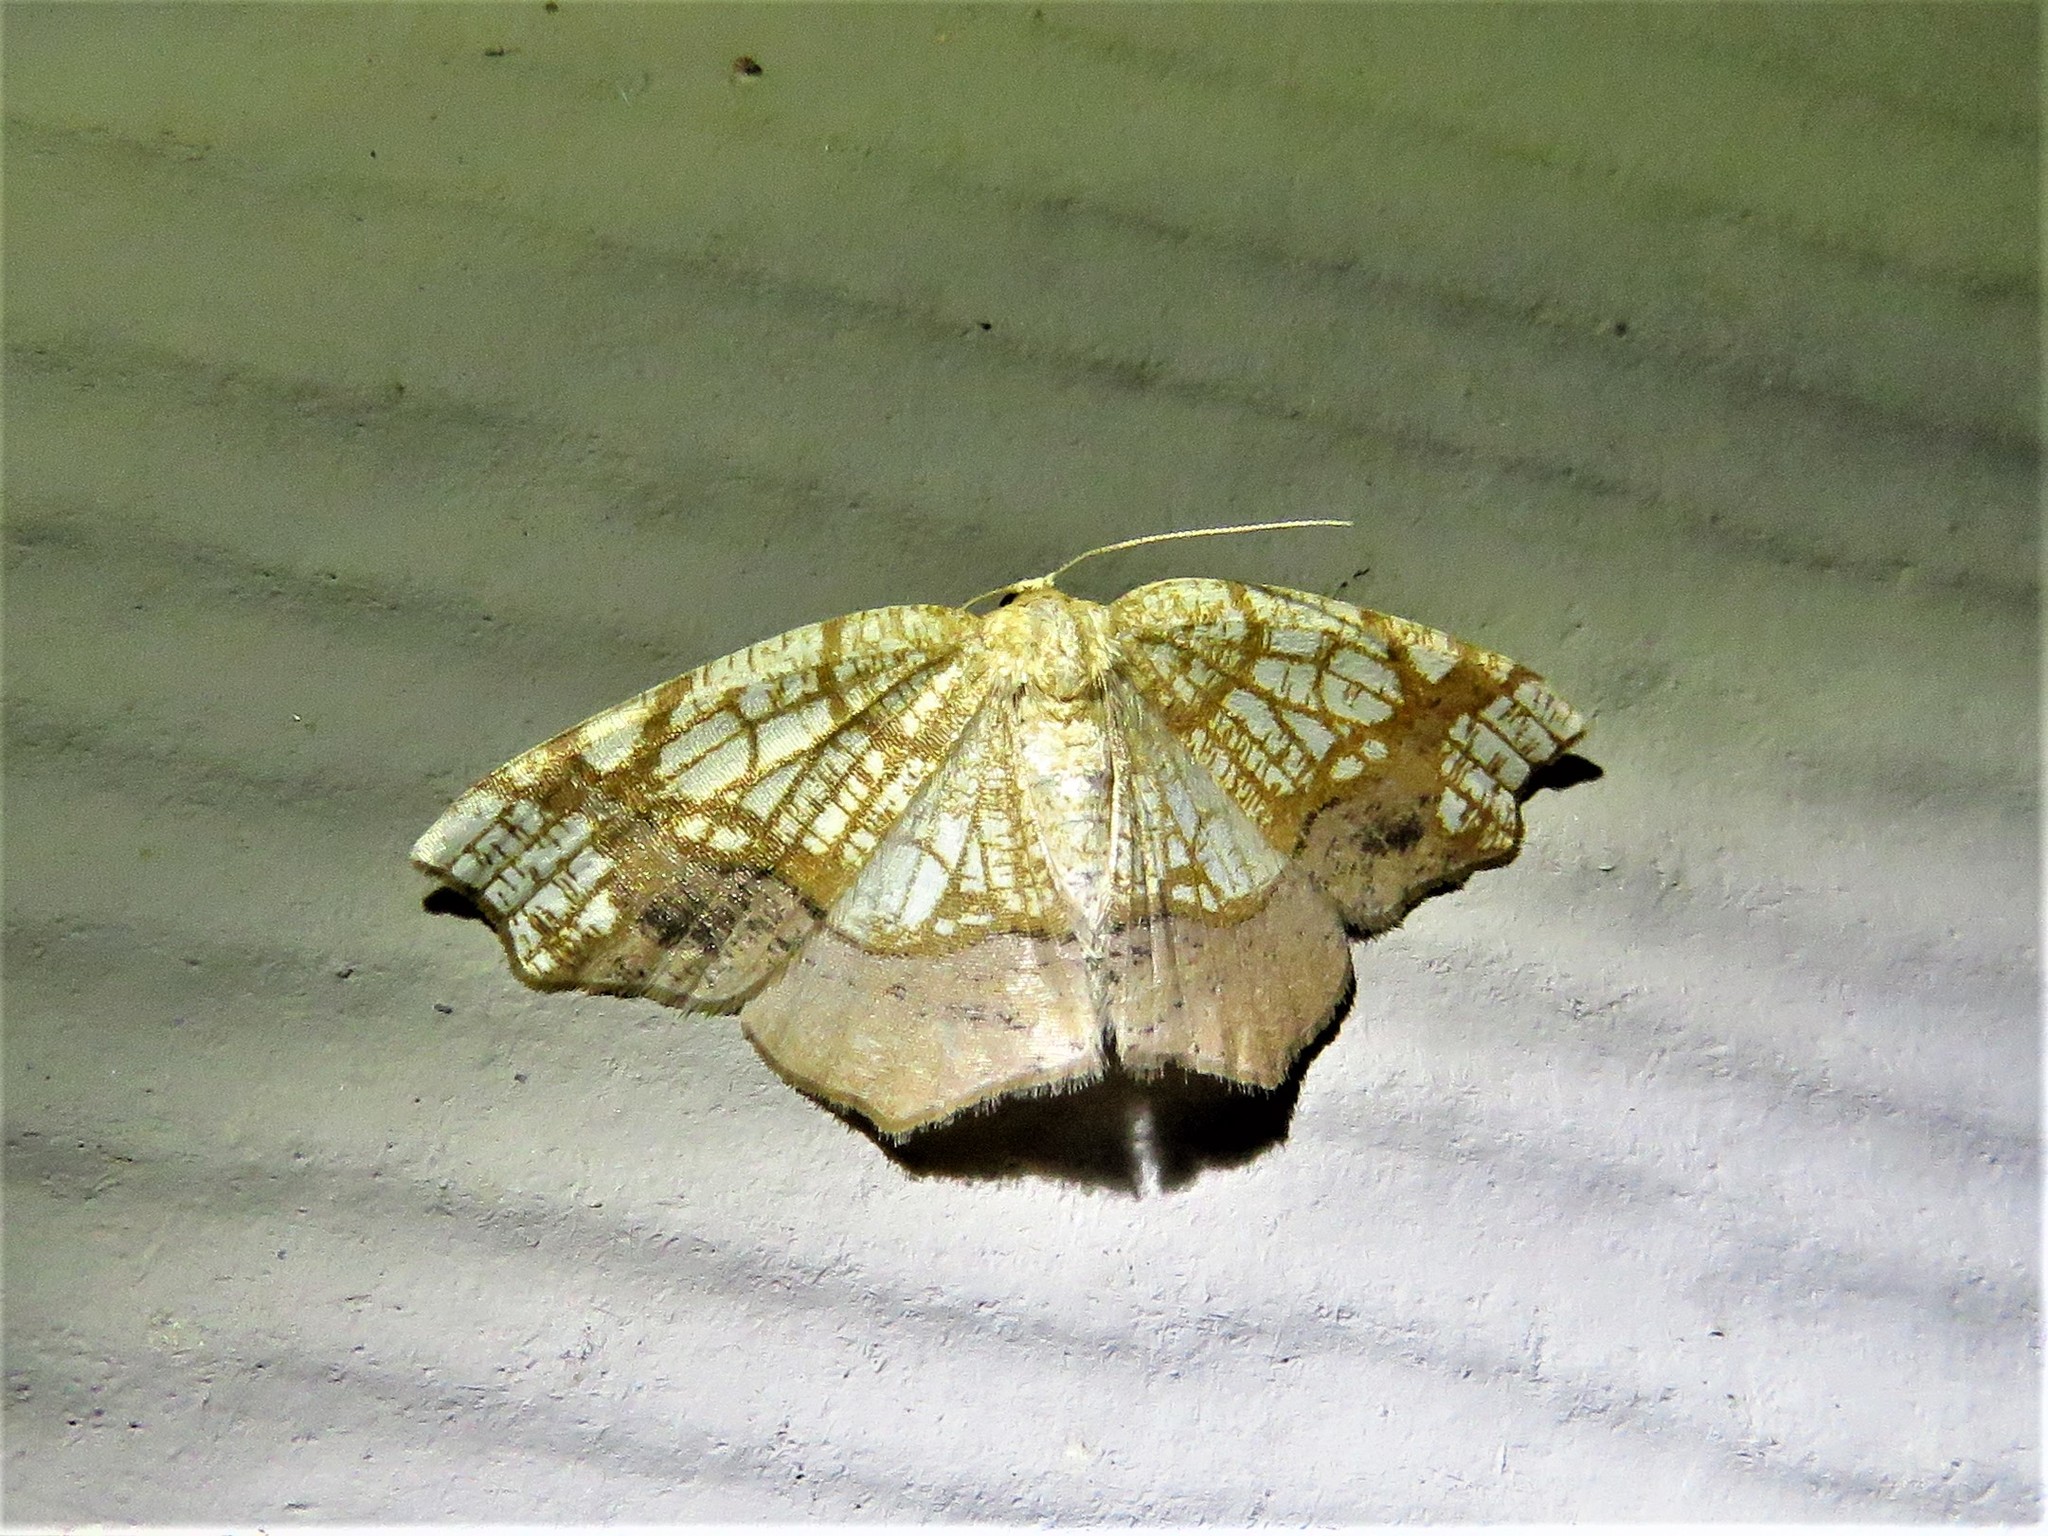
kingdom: Animalia
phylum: Arthropoda
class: Insecta
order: Lepidoptera
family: Geometridae
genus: Nematocampa
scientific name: Nematocampa resistaria
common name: Horned spanworm moth
